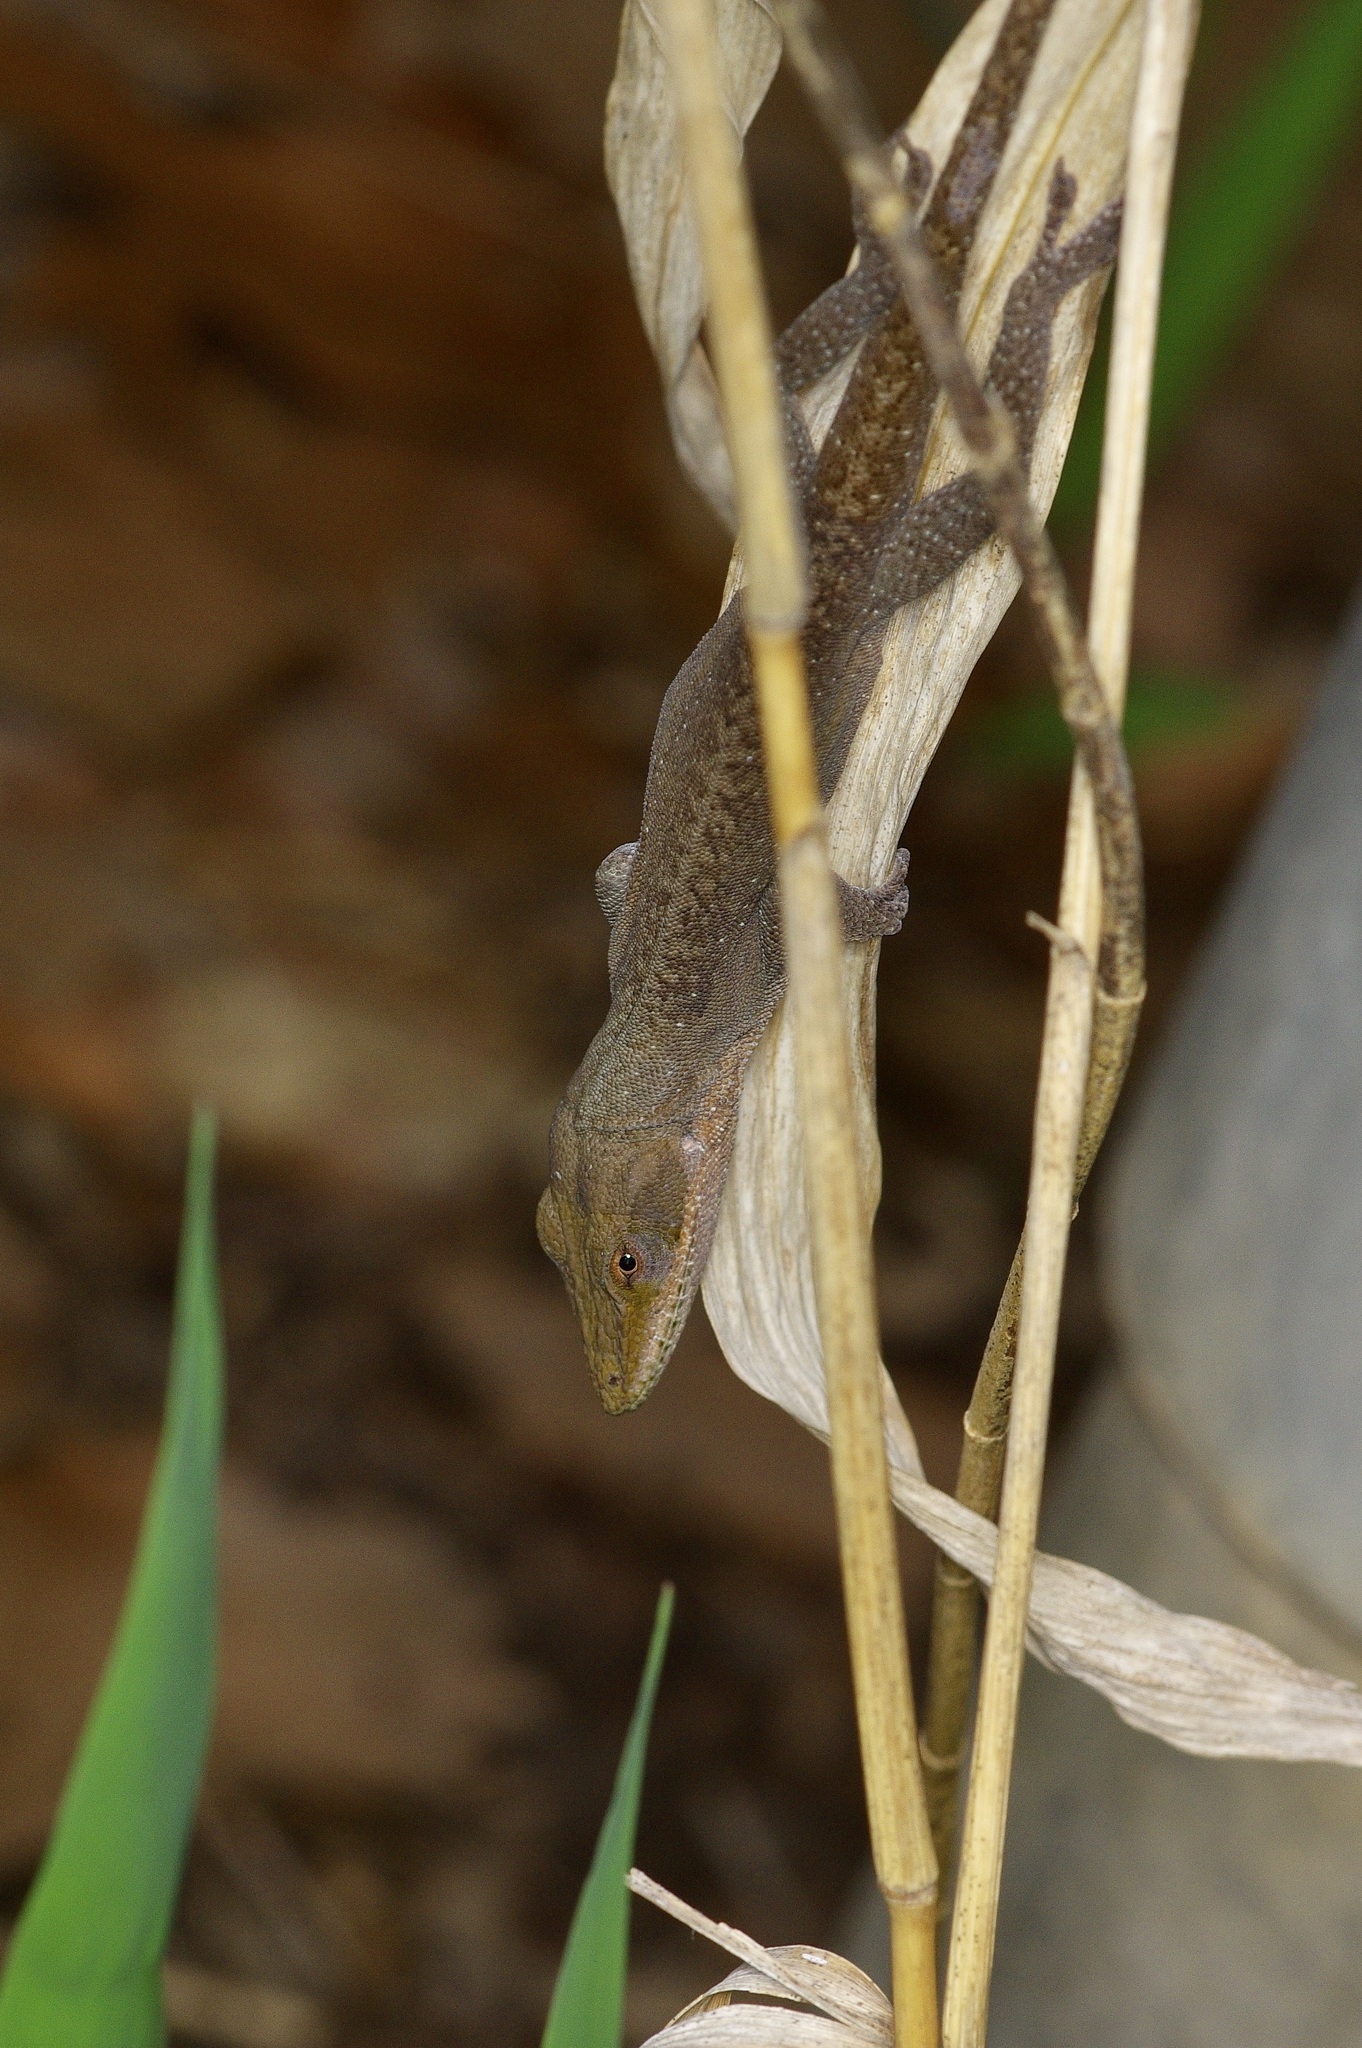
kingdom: Animalia
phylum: Chordata
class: Squamata
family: Dactyloidae
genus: Anolis
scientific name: Anolis carolinensis
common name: Green anole
